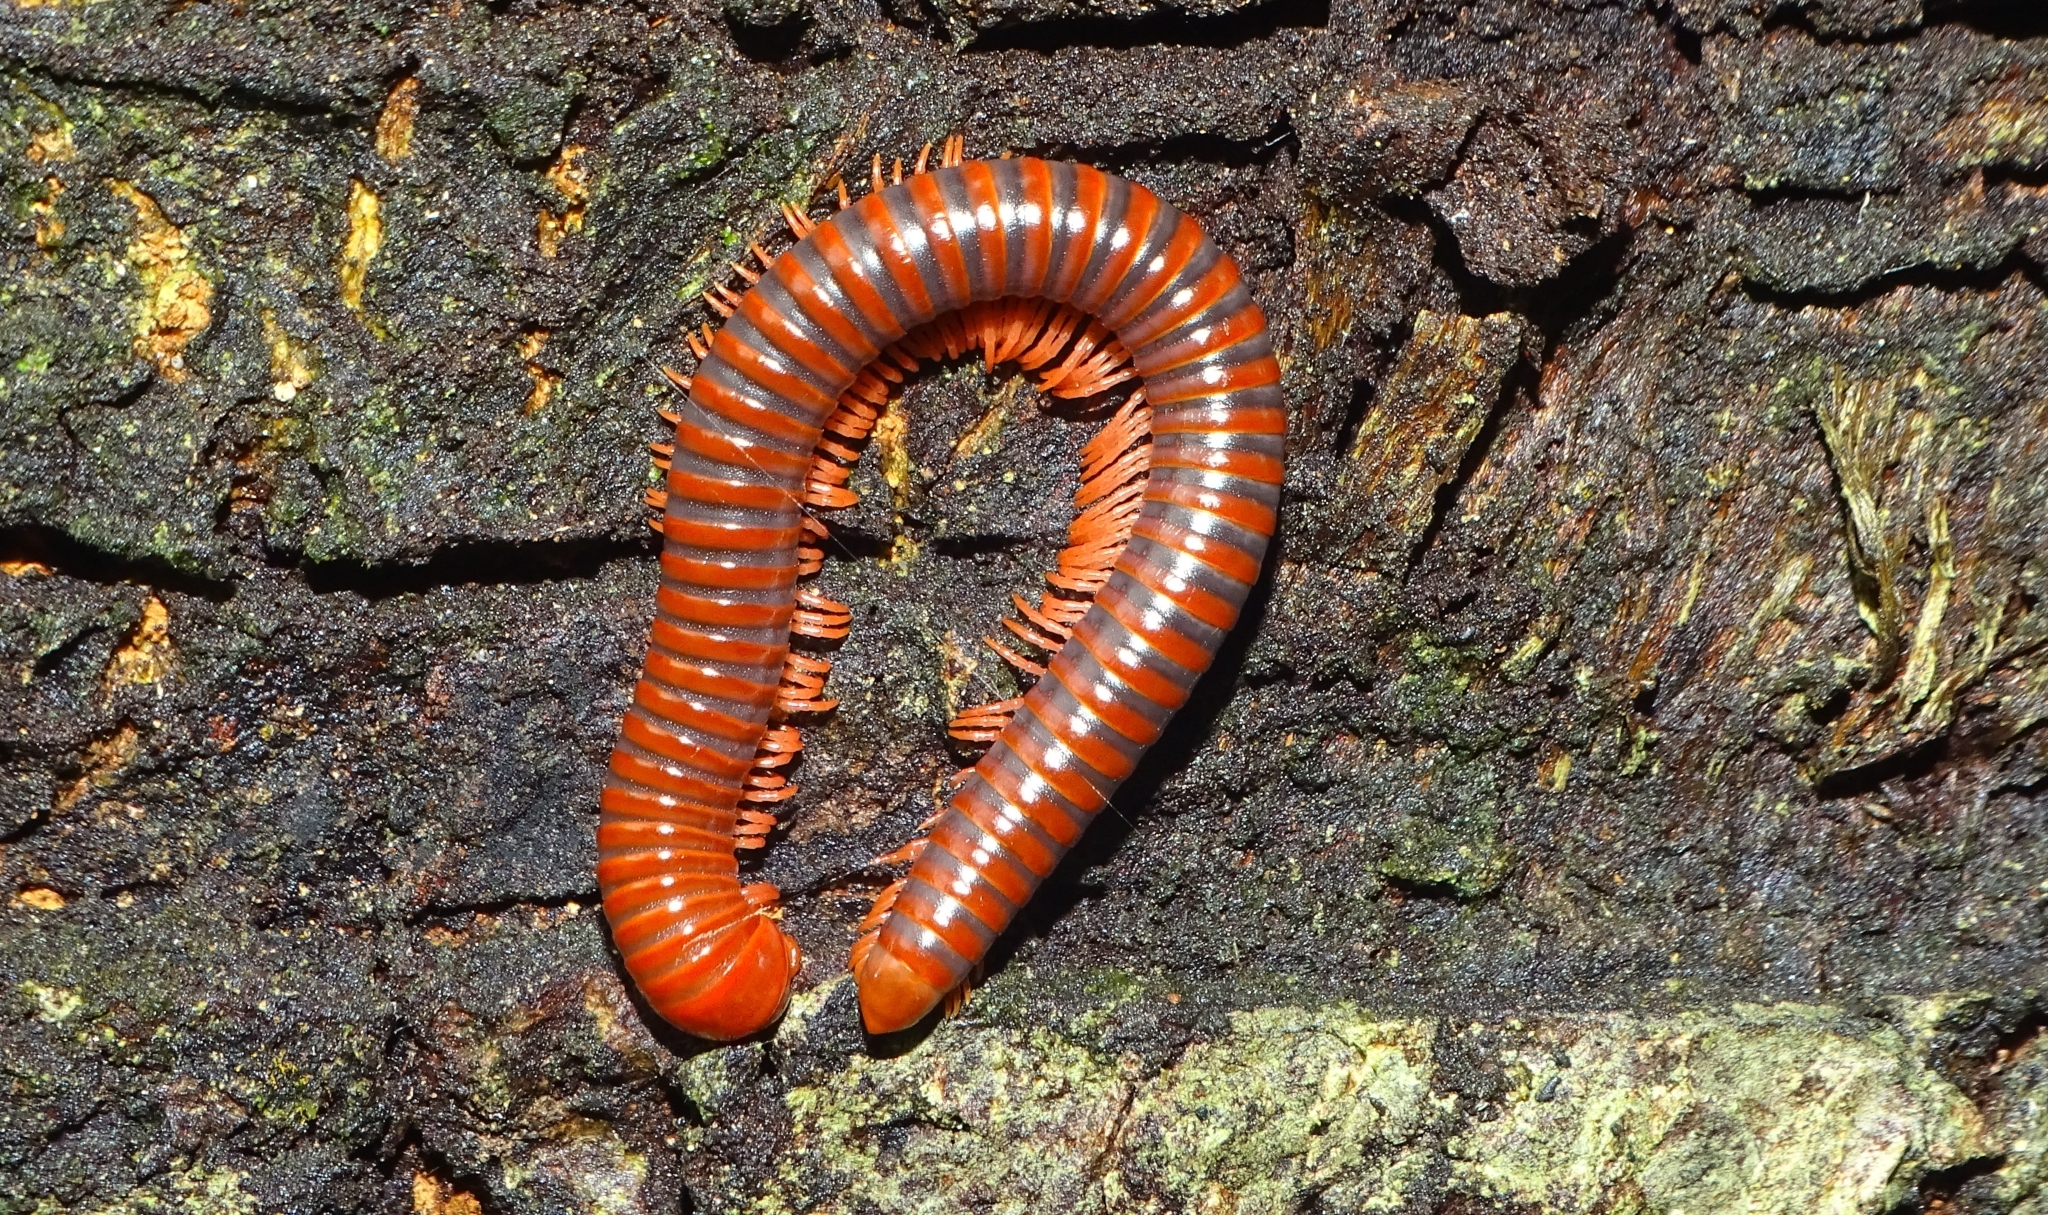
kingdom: Animalia
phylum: Arthropoda
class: Diplopoda
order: Spirobolida
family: Pachybolidae
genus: Trigoniulus
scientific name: Trigoniulus corallinus
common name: Millipede
